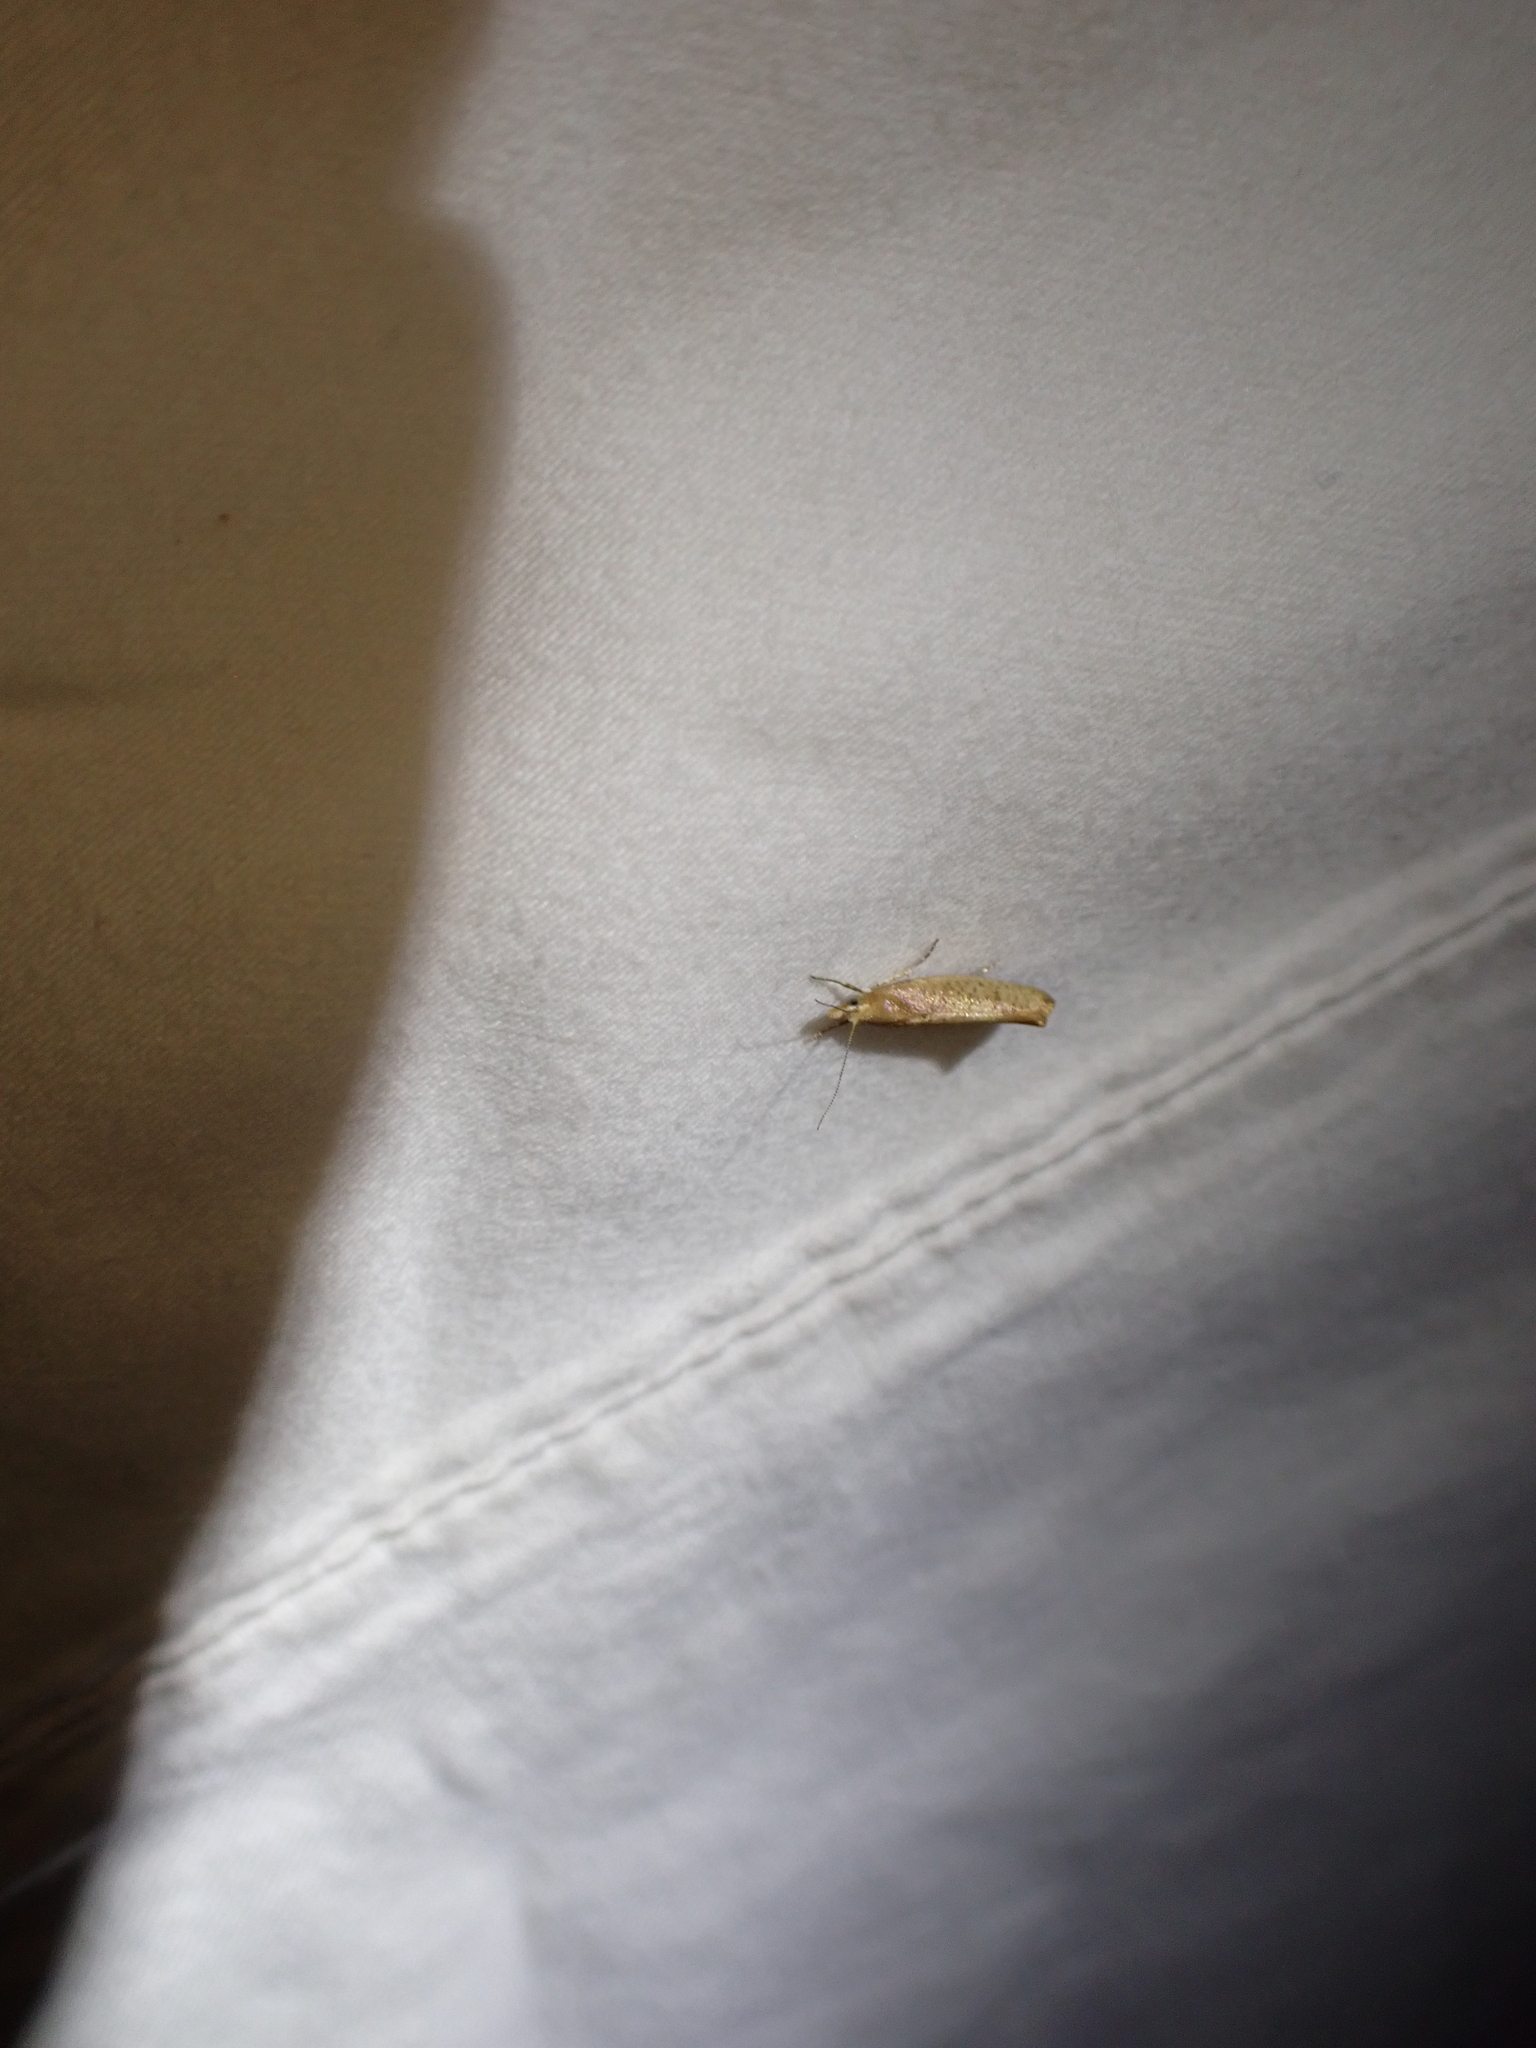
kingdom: Animalia
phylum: Arthropoda
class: Insecta
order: Lepidoptera
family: Ypsolophidae
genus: Ypsolopha
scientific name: Ypsolopha cervella
